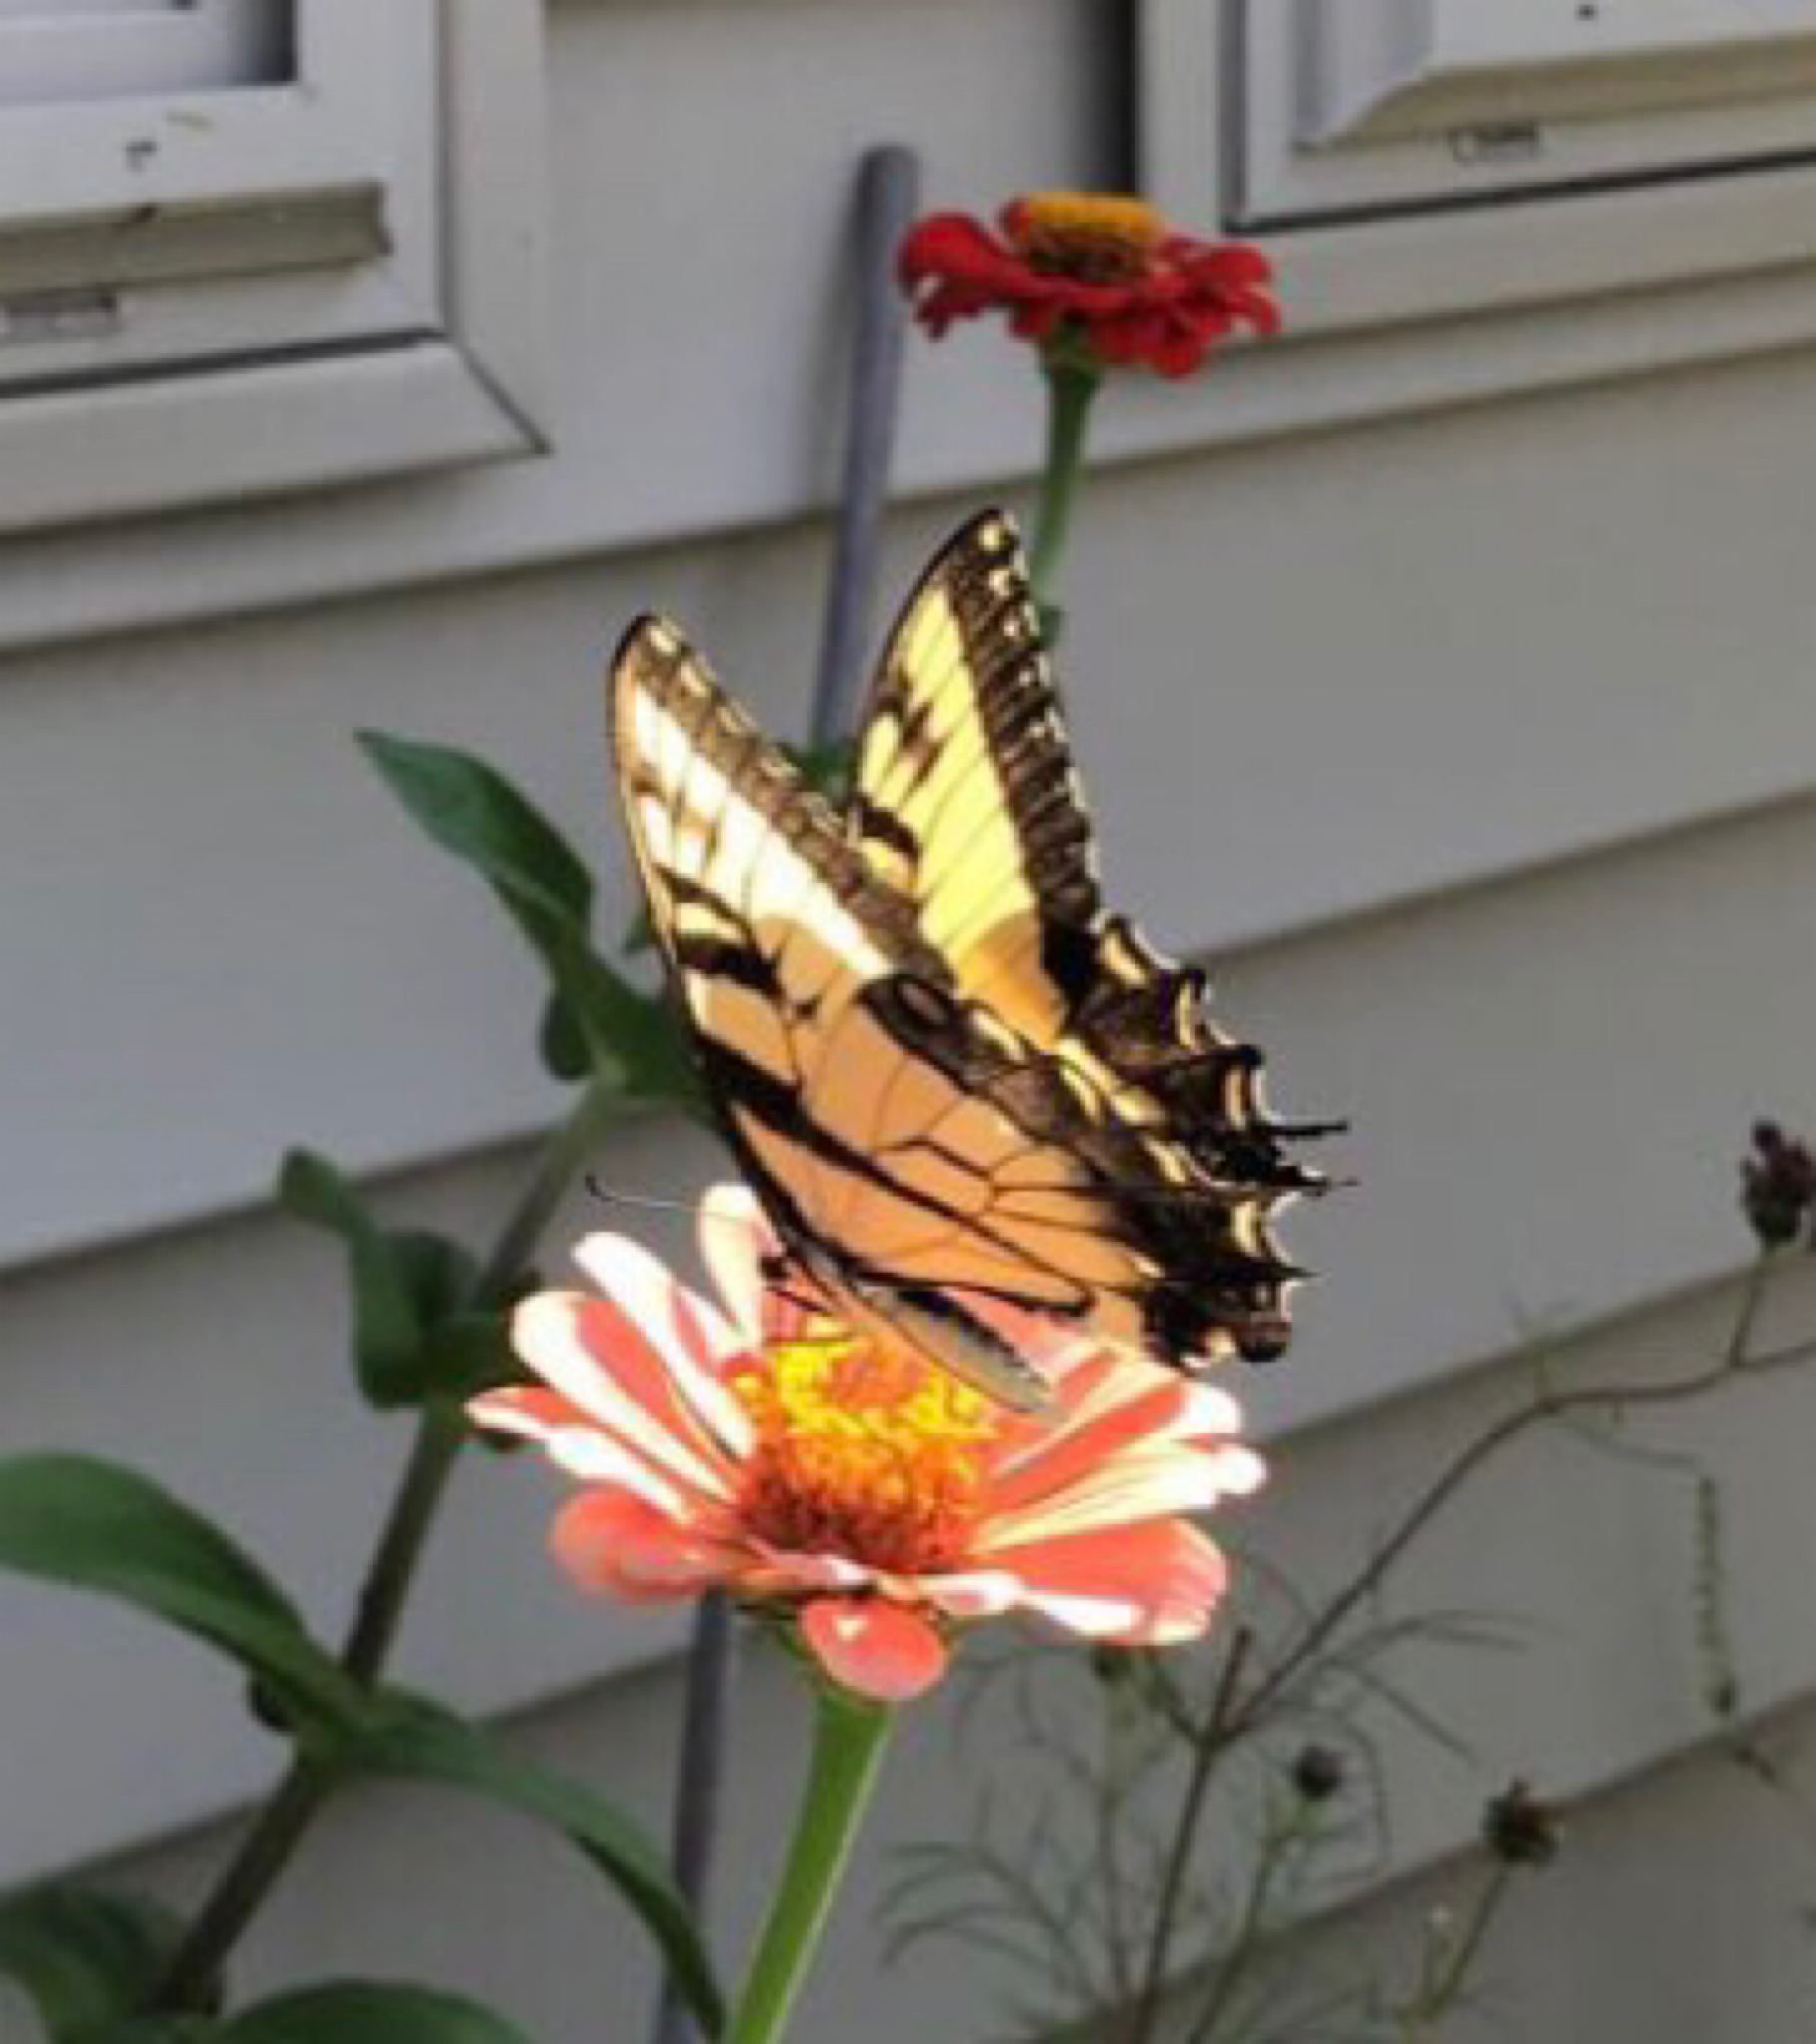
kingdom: Animalia
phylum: Arthropoda
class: Insecta
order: Lepidoptera
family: Papilionidae
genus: Papilio
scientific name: Papilio glaucus
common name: Tiger swallowtail
